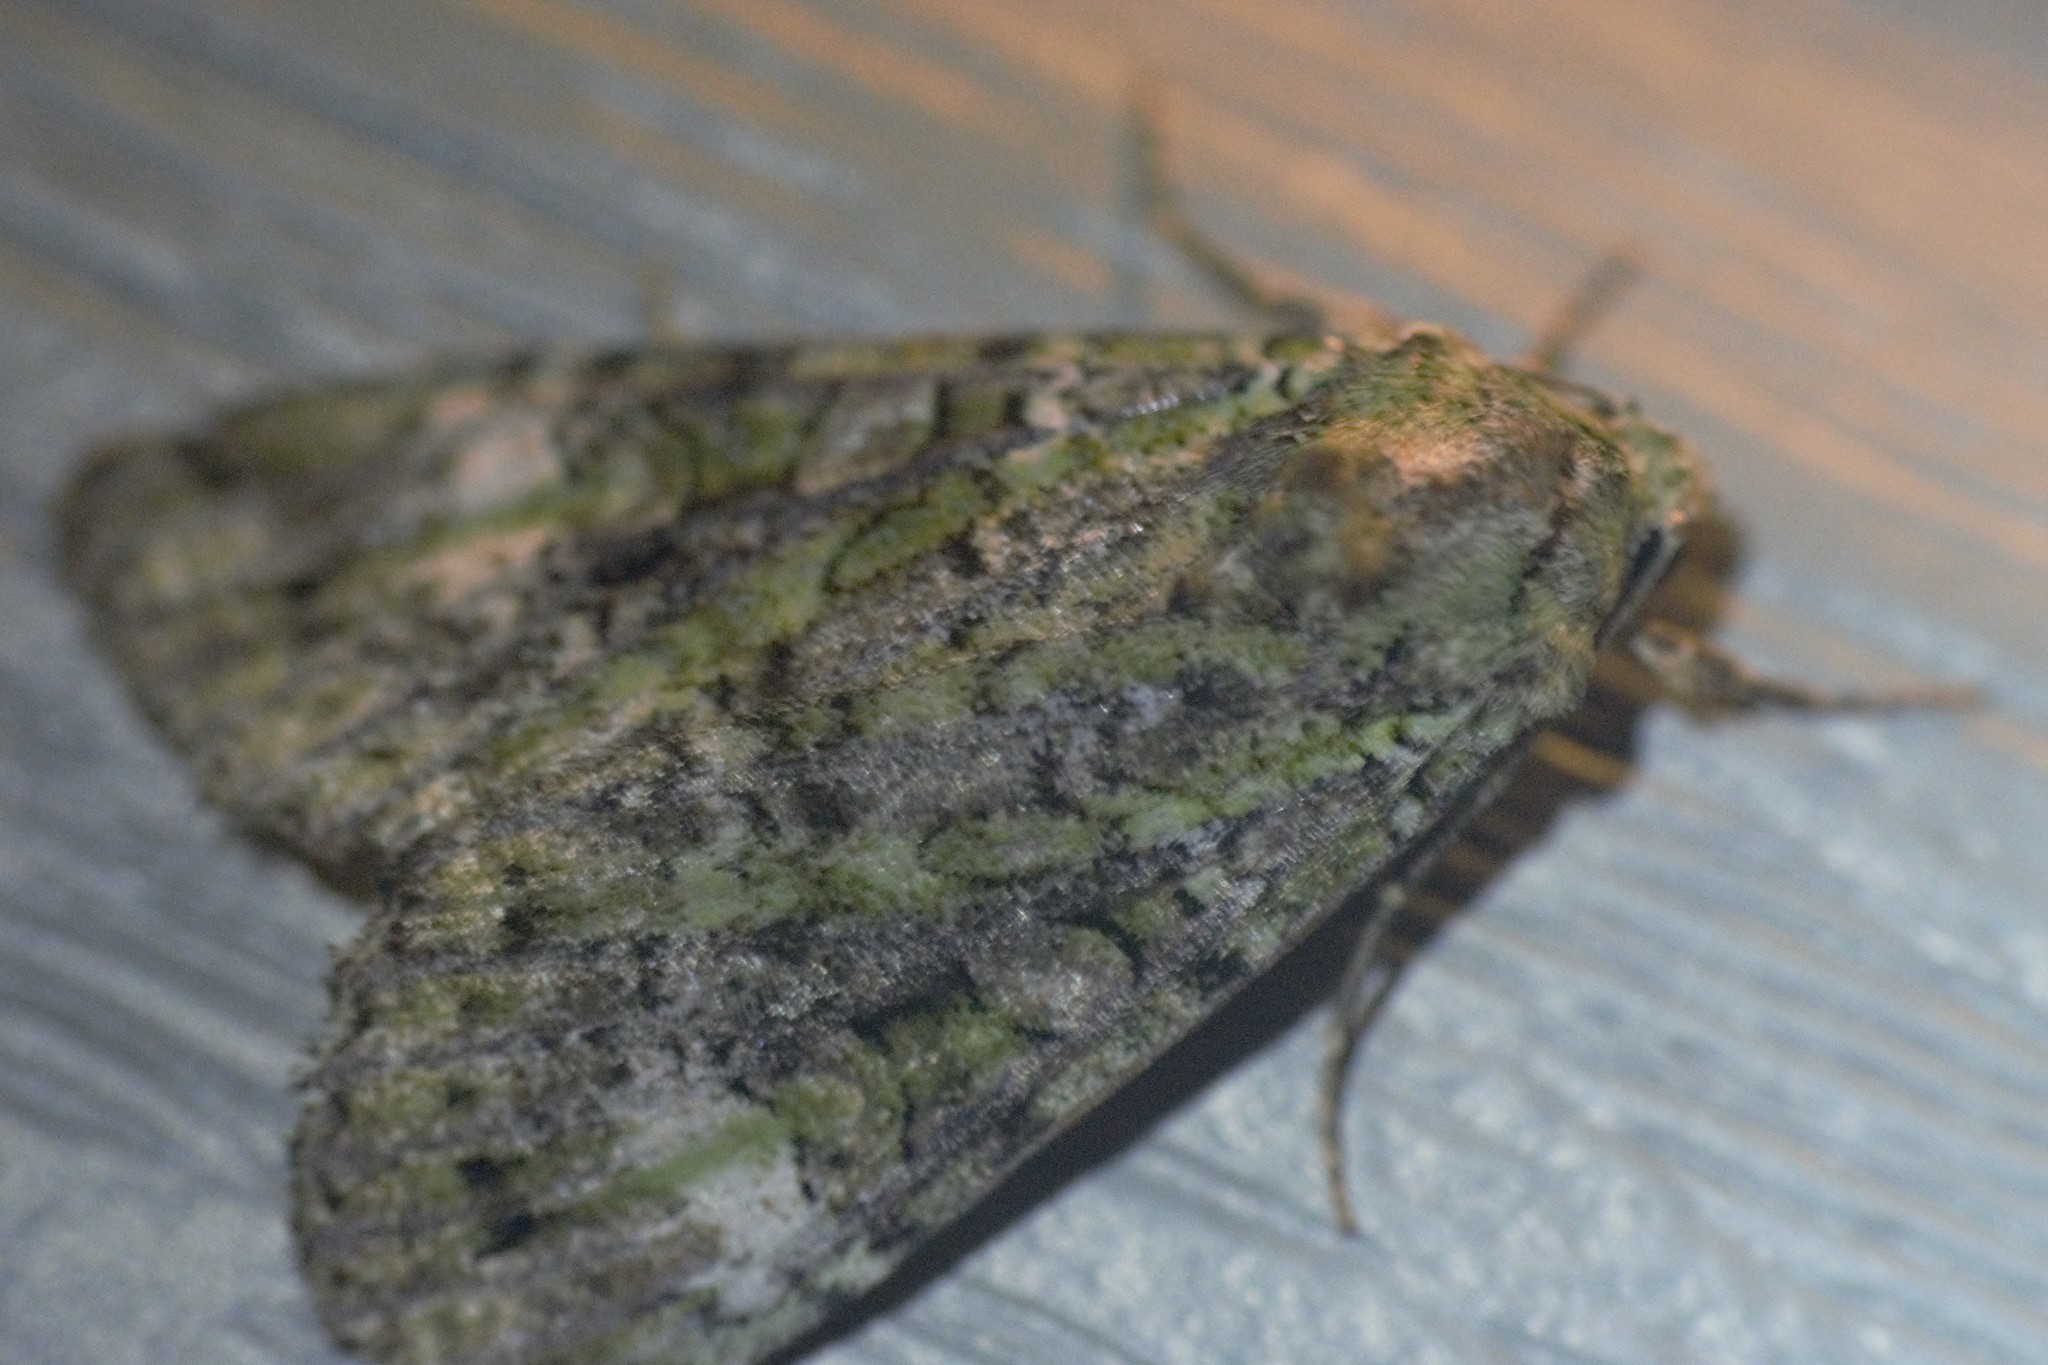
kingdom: Animalia
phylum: Arthropoda
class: Insecta
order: Lepidoptera
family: Noctuidae
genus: Anaplectoides
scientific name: Anaplectoides prasina
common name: Green arches
